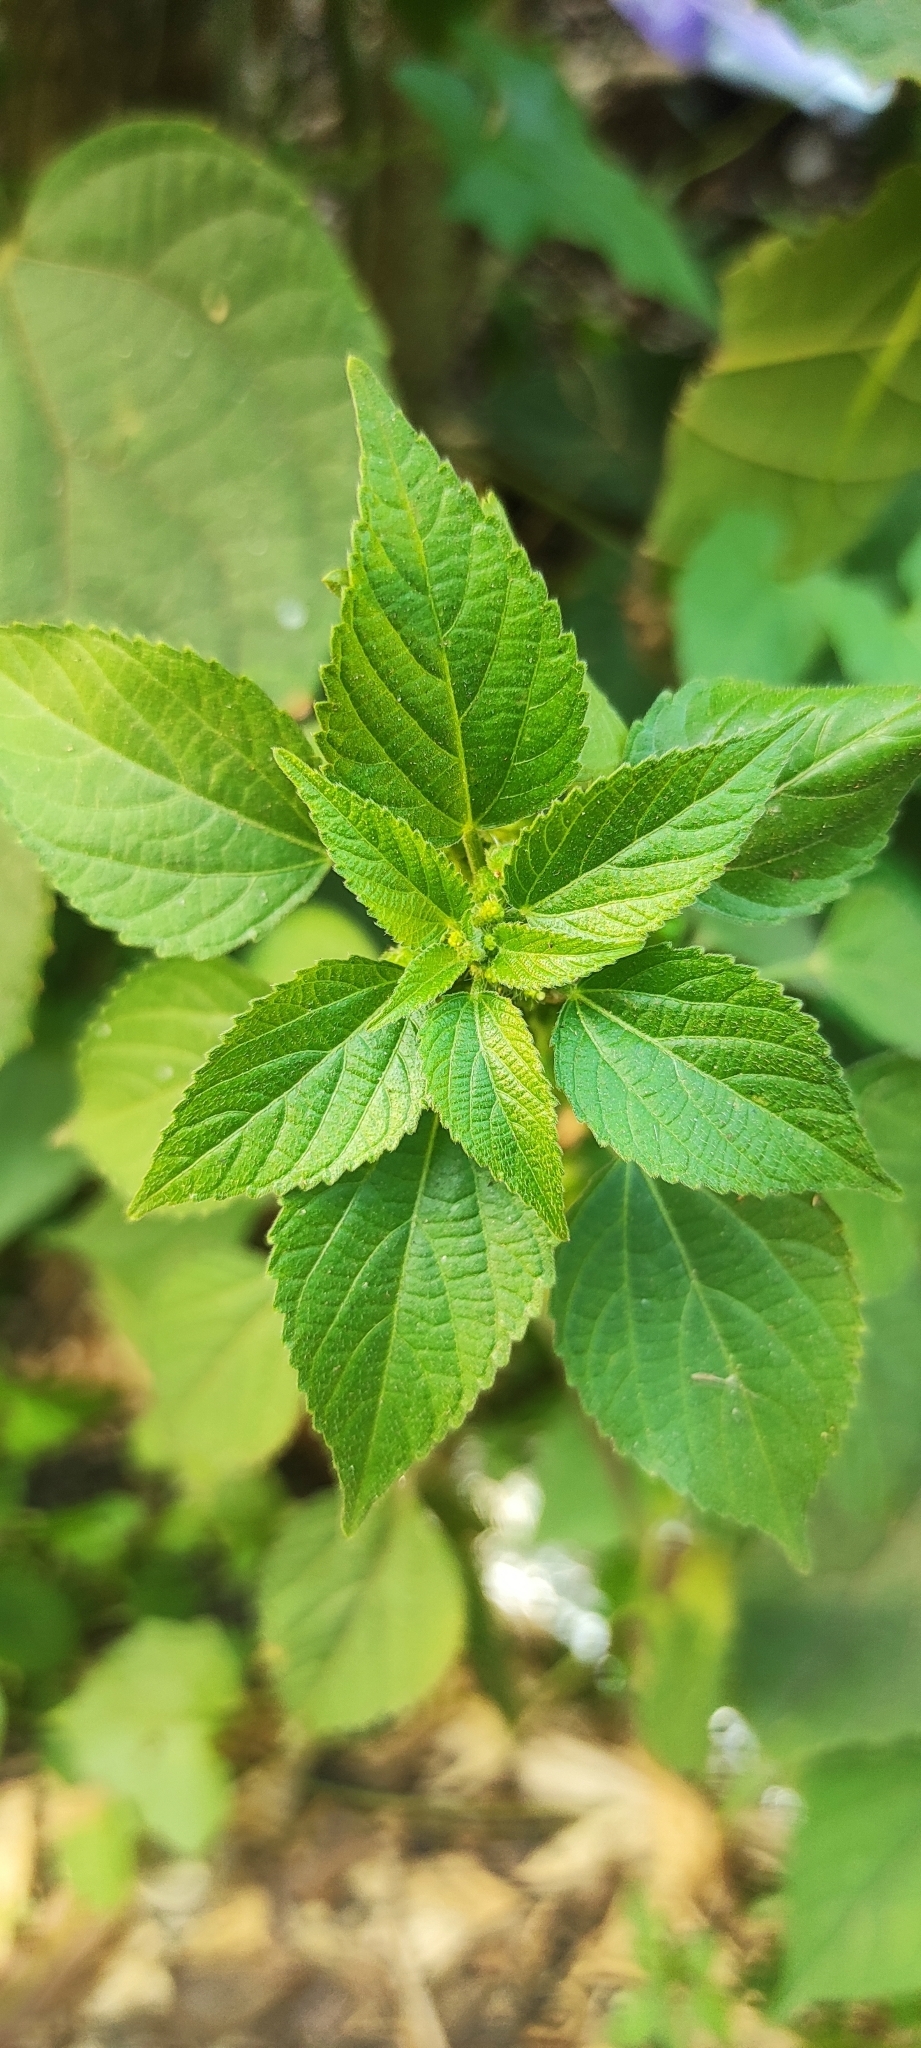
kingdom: Plantae
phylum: Tracheophyta
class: Magnoliopsida
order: Malpighiales
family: Euphorbiaceae
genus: Acalypha
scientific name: Acalypha indica
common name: Indian acalypha
